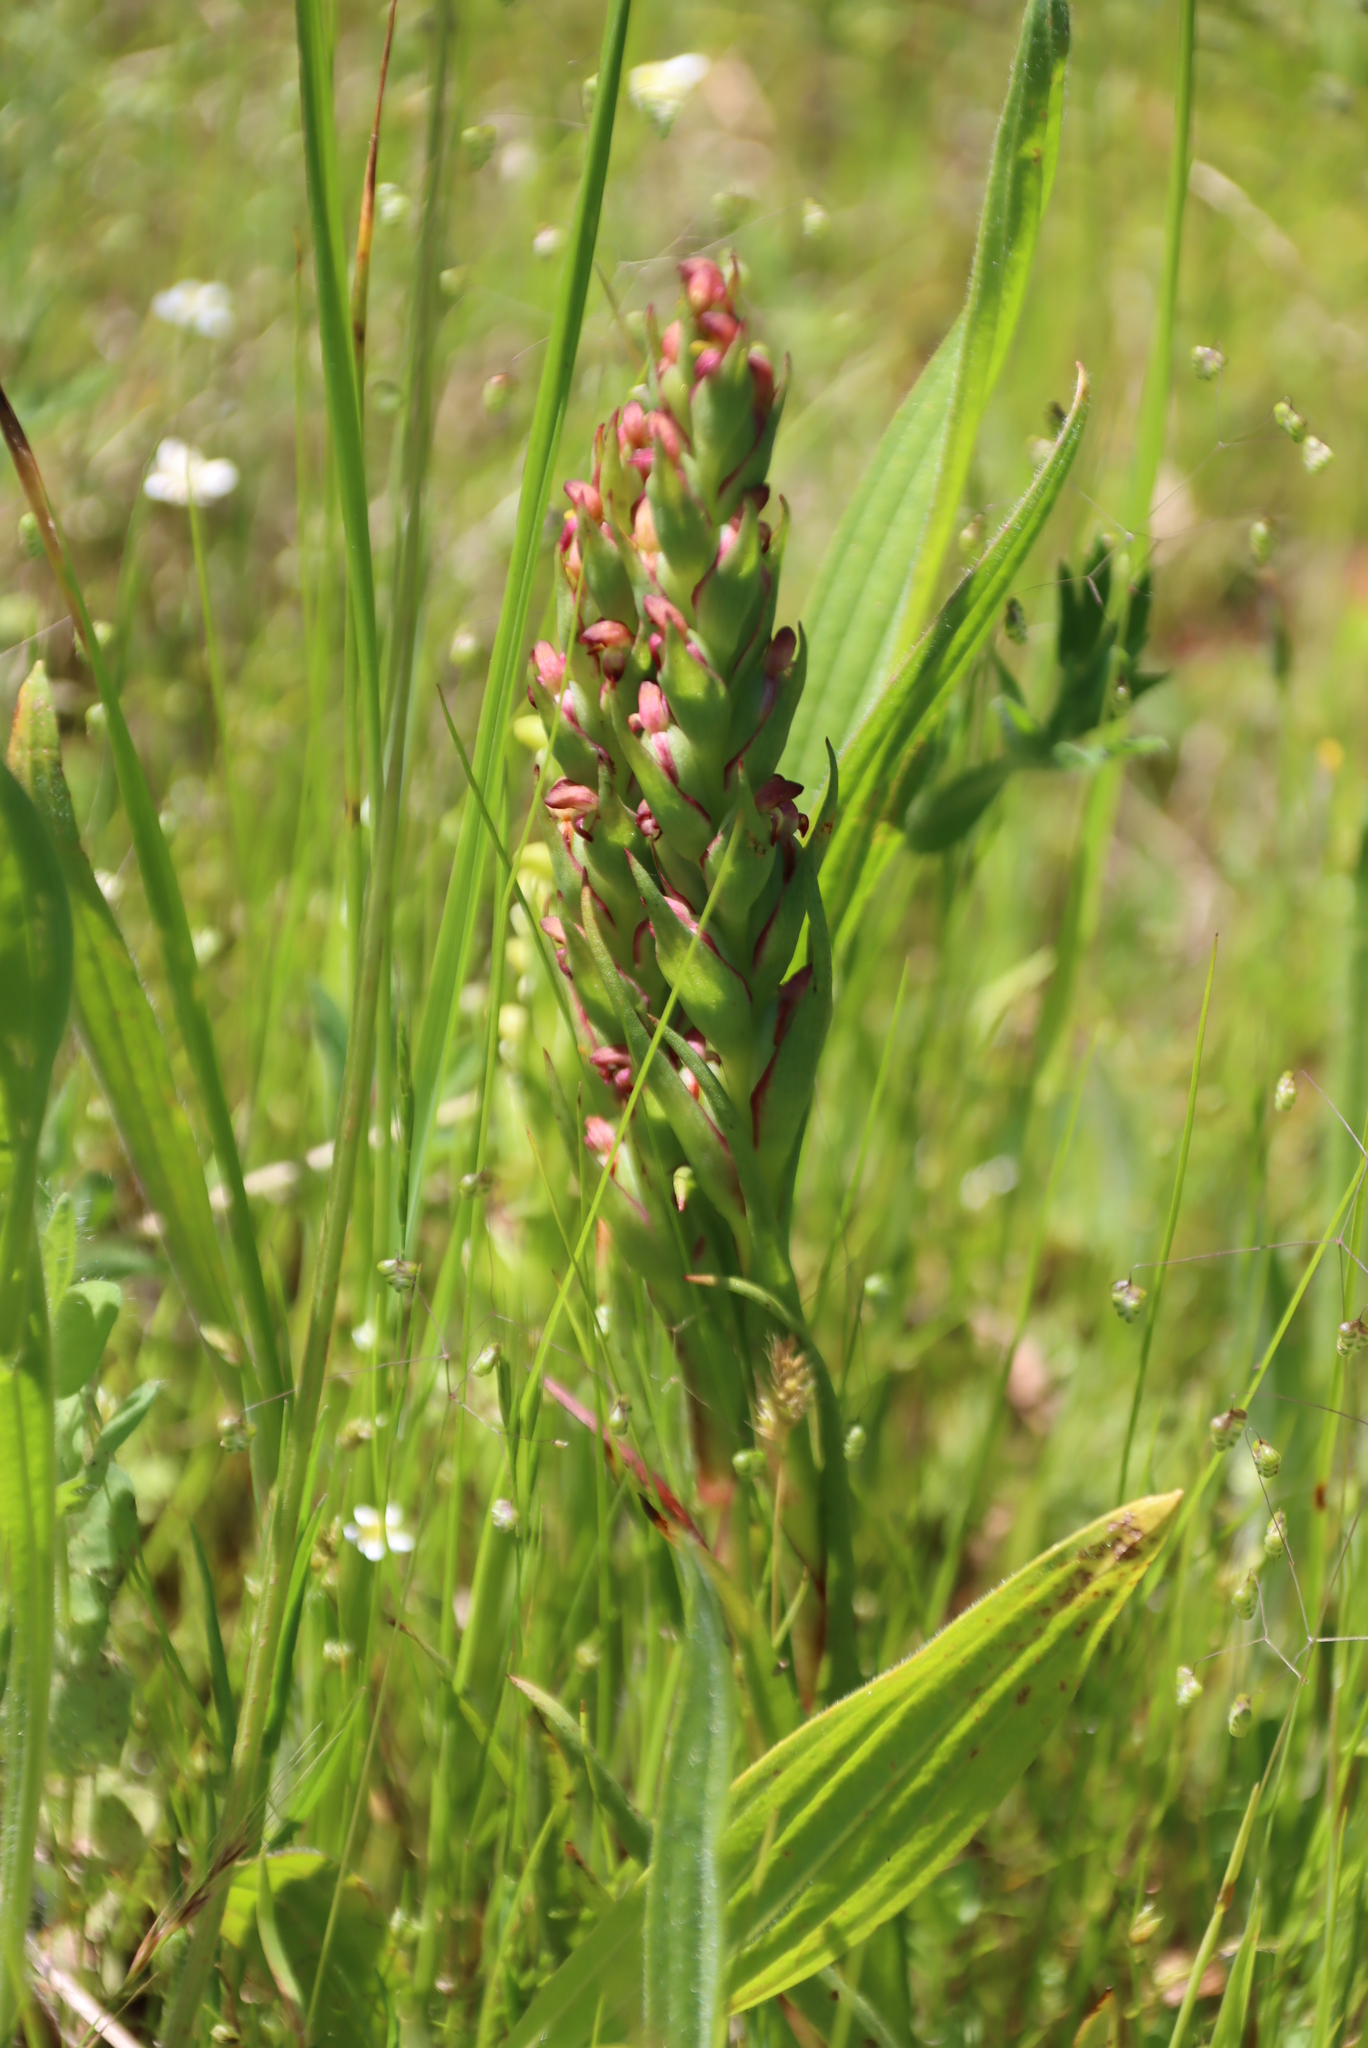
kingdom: Plantae
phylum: Tracheophyta
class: Liliopsida
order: Asparagales
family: Orchidaceae
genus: Disa
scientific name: Disa bracteata
